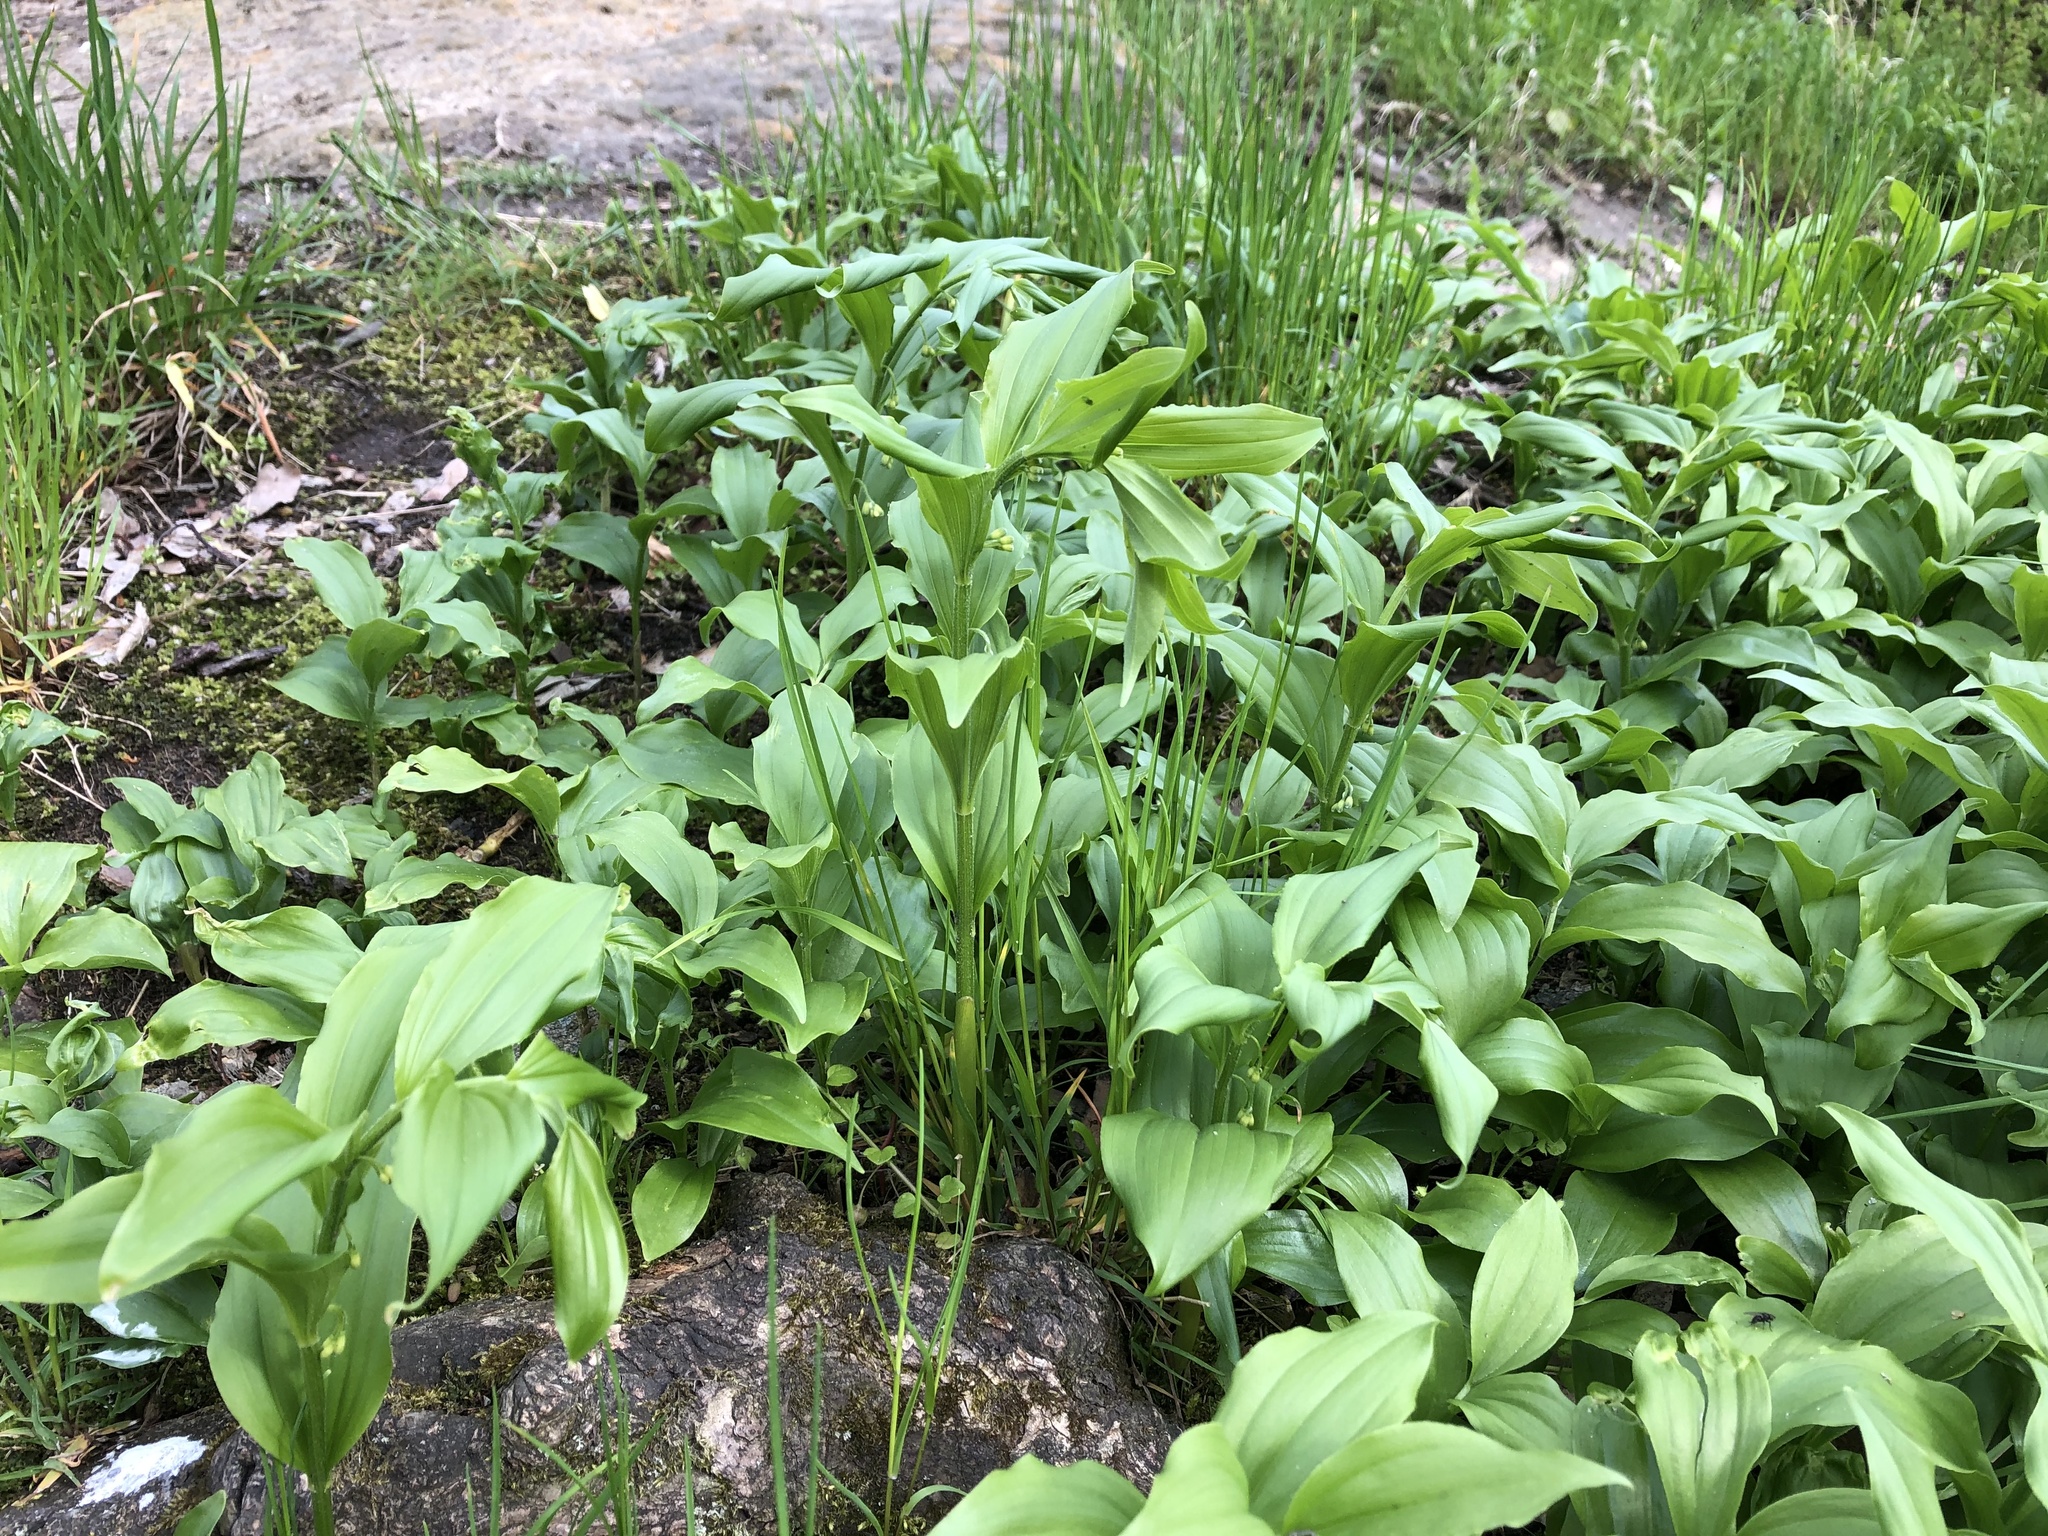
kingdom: Plantae
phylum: Tracheophyta
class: Liliopsida
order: Asparagales
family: Asparagaceae
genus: Polygonatum
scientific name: Polygonatum odoratum
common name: Angular solomon's-seal
